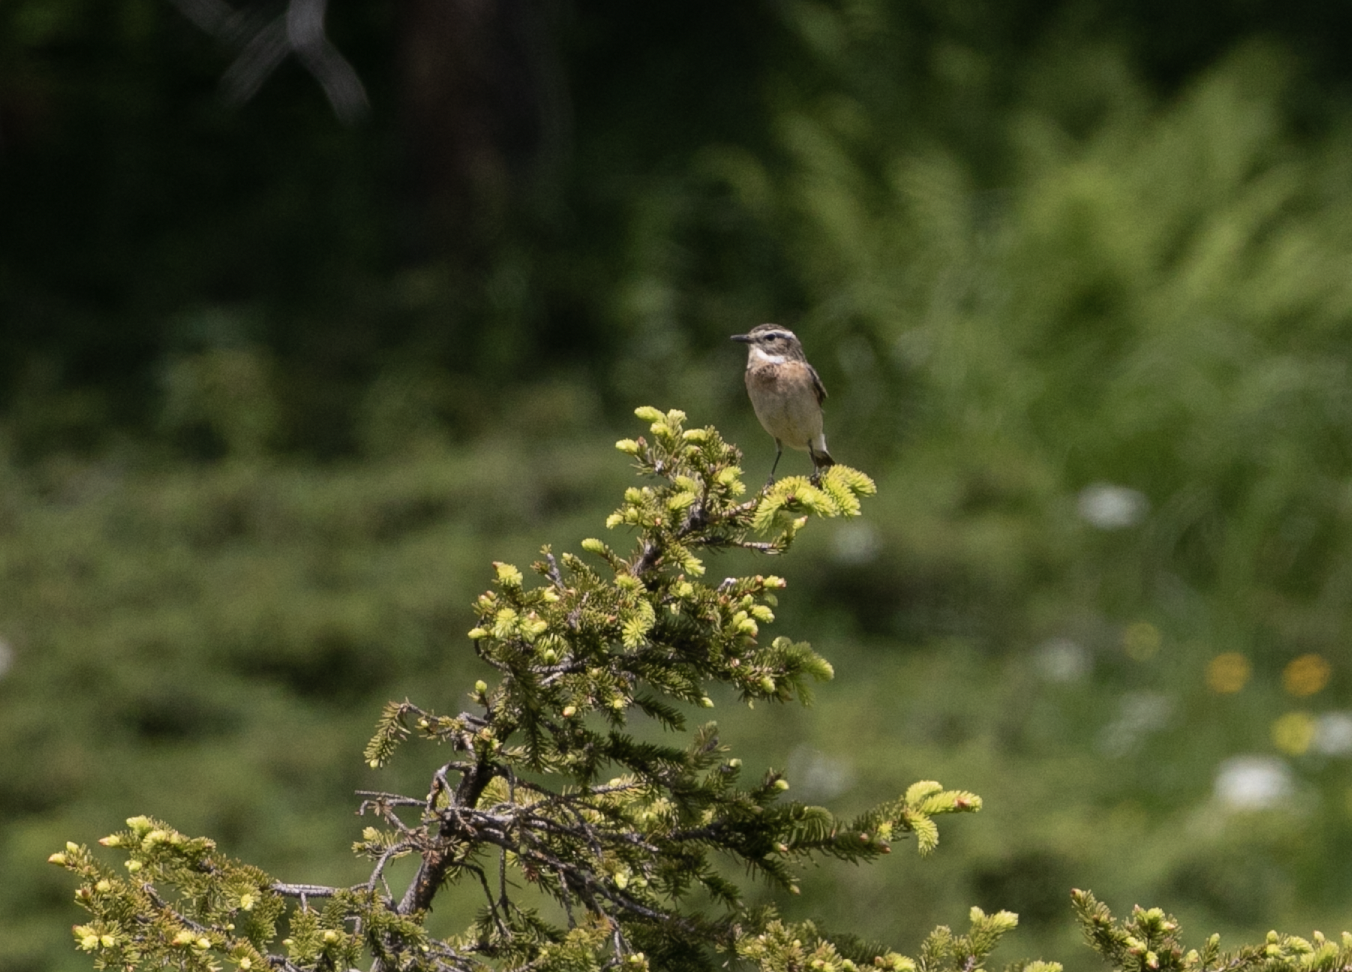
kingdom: Animalia
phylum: Chordata
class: Aves
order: Passeriformes
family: Muscicapidae
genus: Saxicola
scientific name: Saxicola rubetra
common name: Whinchat
